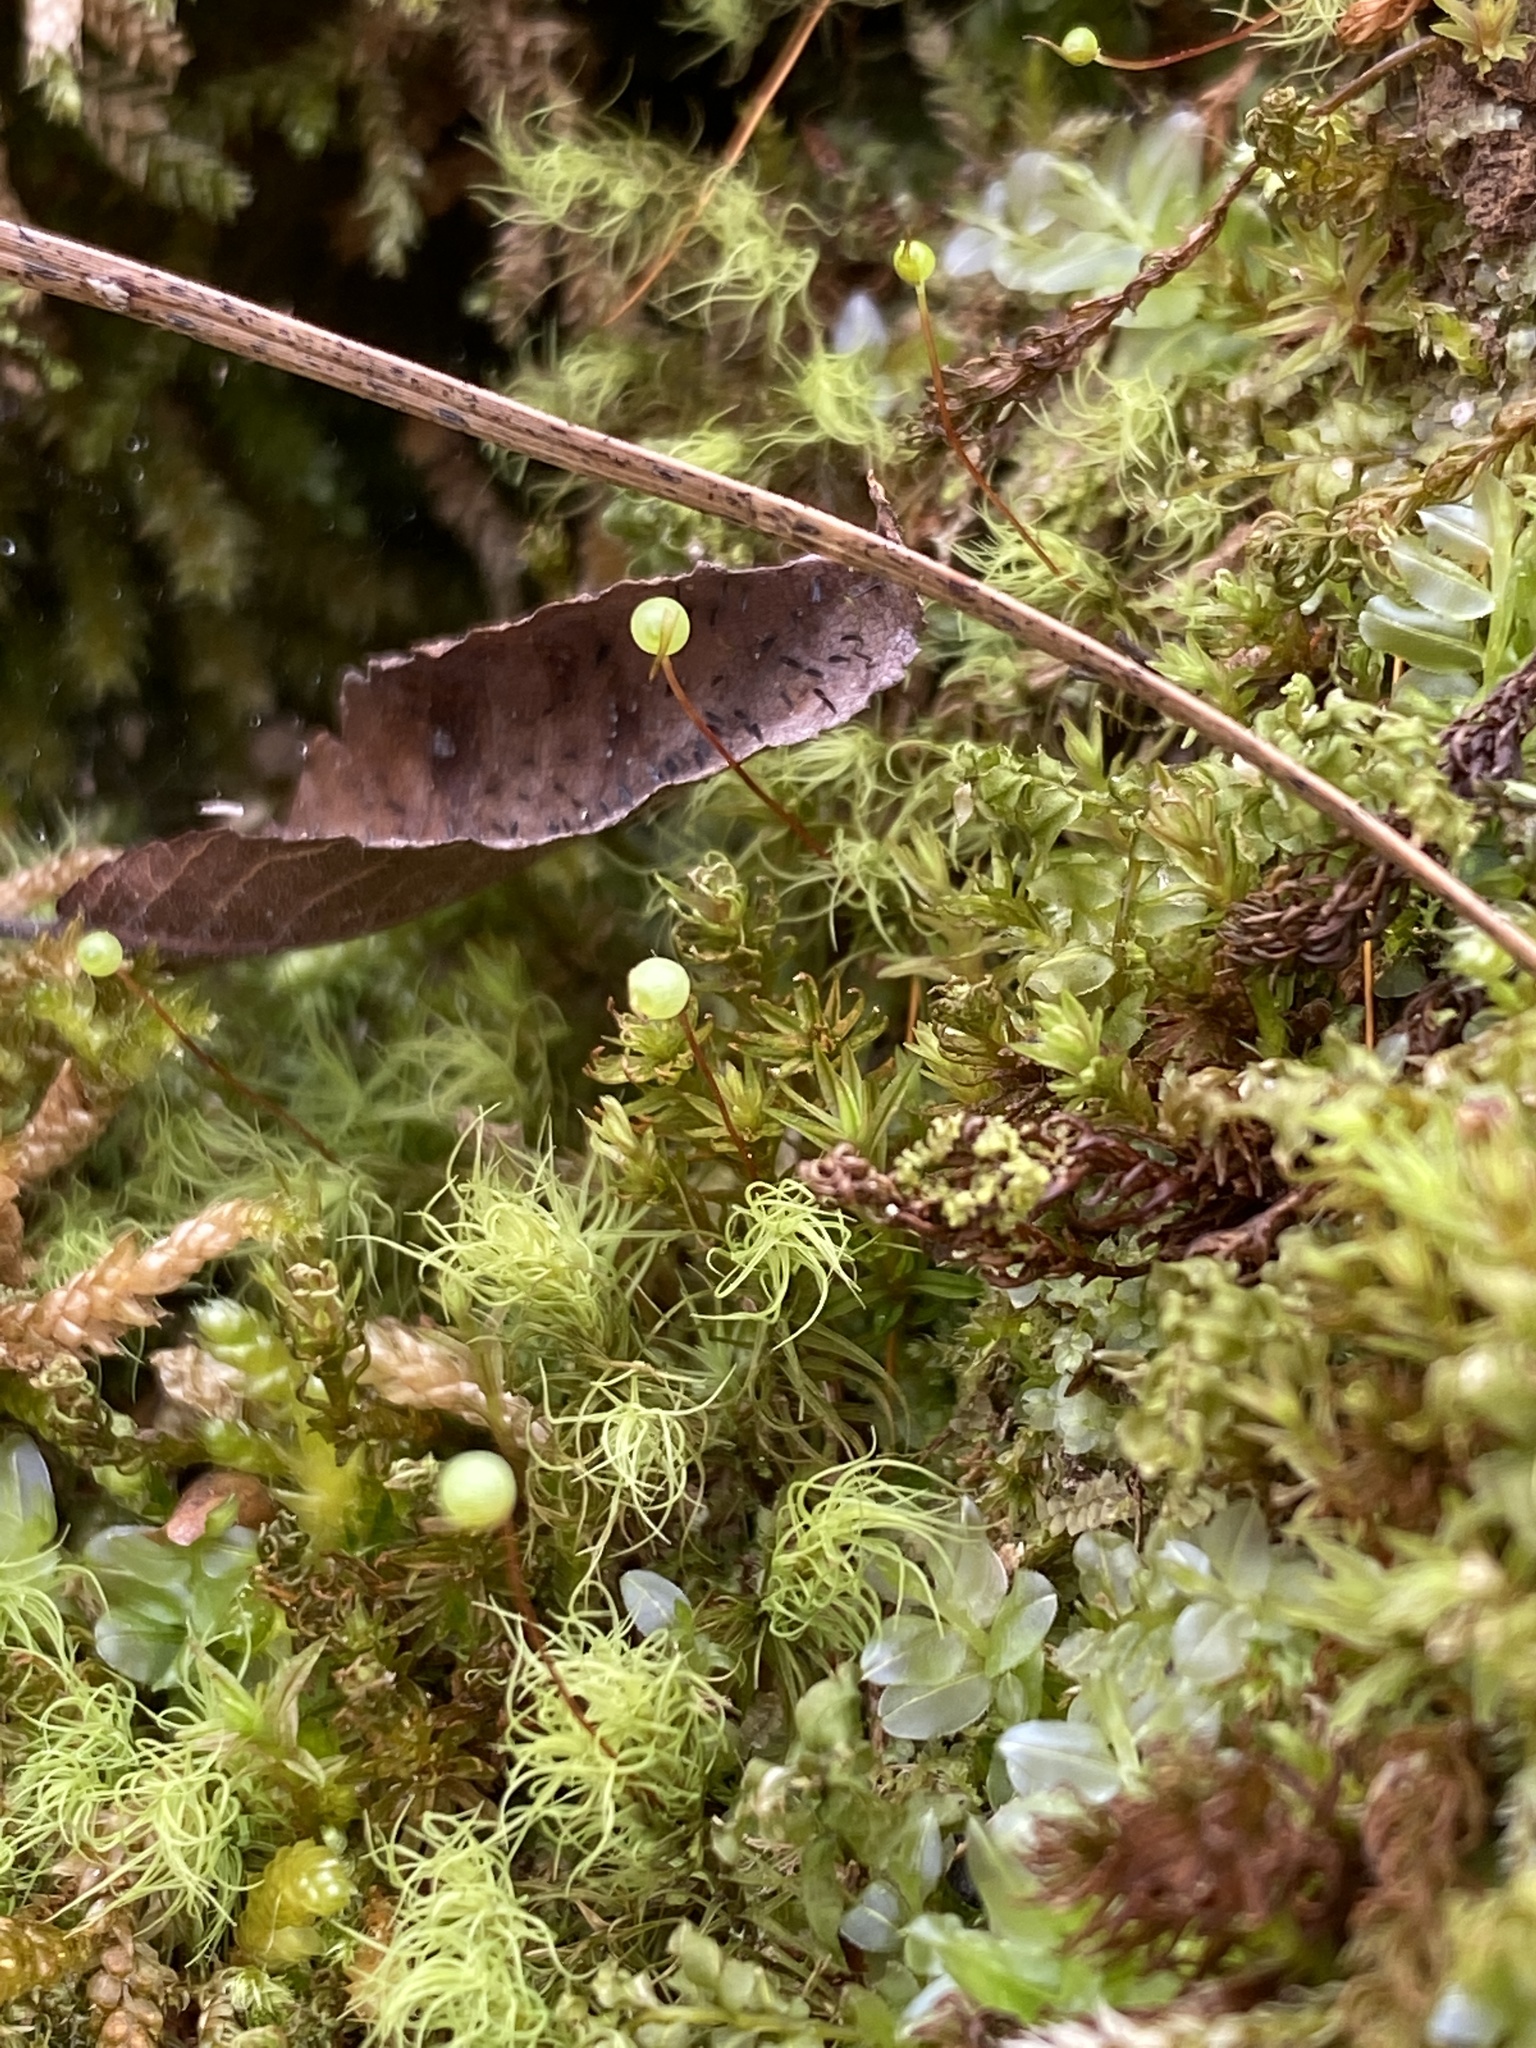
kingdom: Plantae
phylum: Bryophyta
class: Bryopsida
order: Bartramiales
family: Bartramiaceae
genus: Bartramia
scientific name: Bartramia ithyphylla
